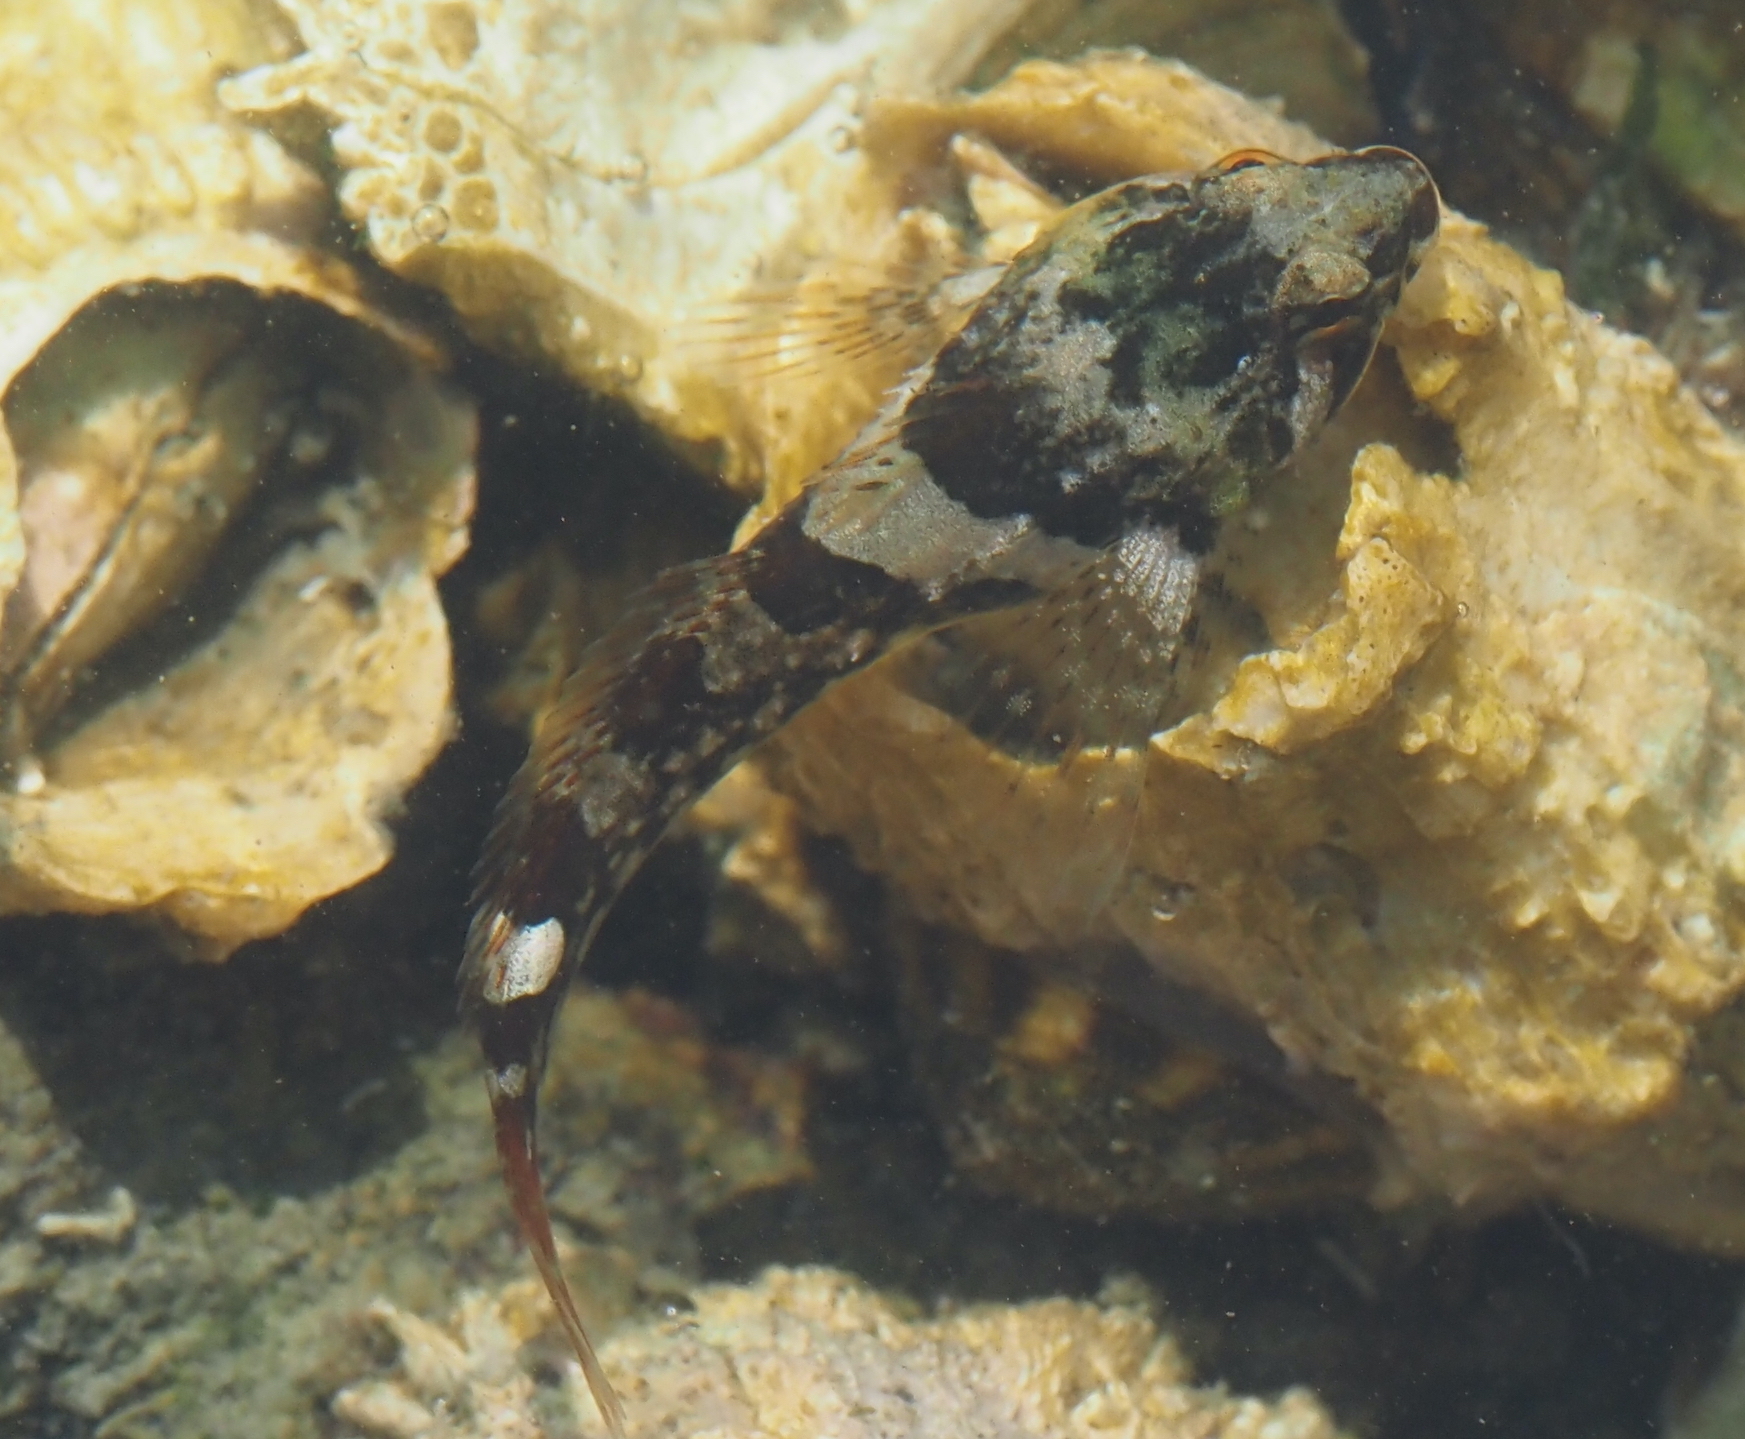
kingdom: Animalia
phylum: Chordata
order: Scorpaeniformes
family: Cottidae
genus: Oligocottus
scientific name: Oligocottus maculosus
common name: Tidepool sculpin
